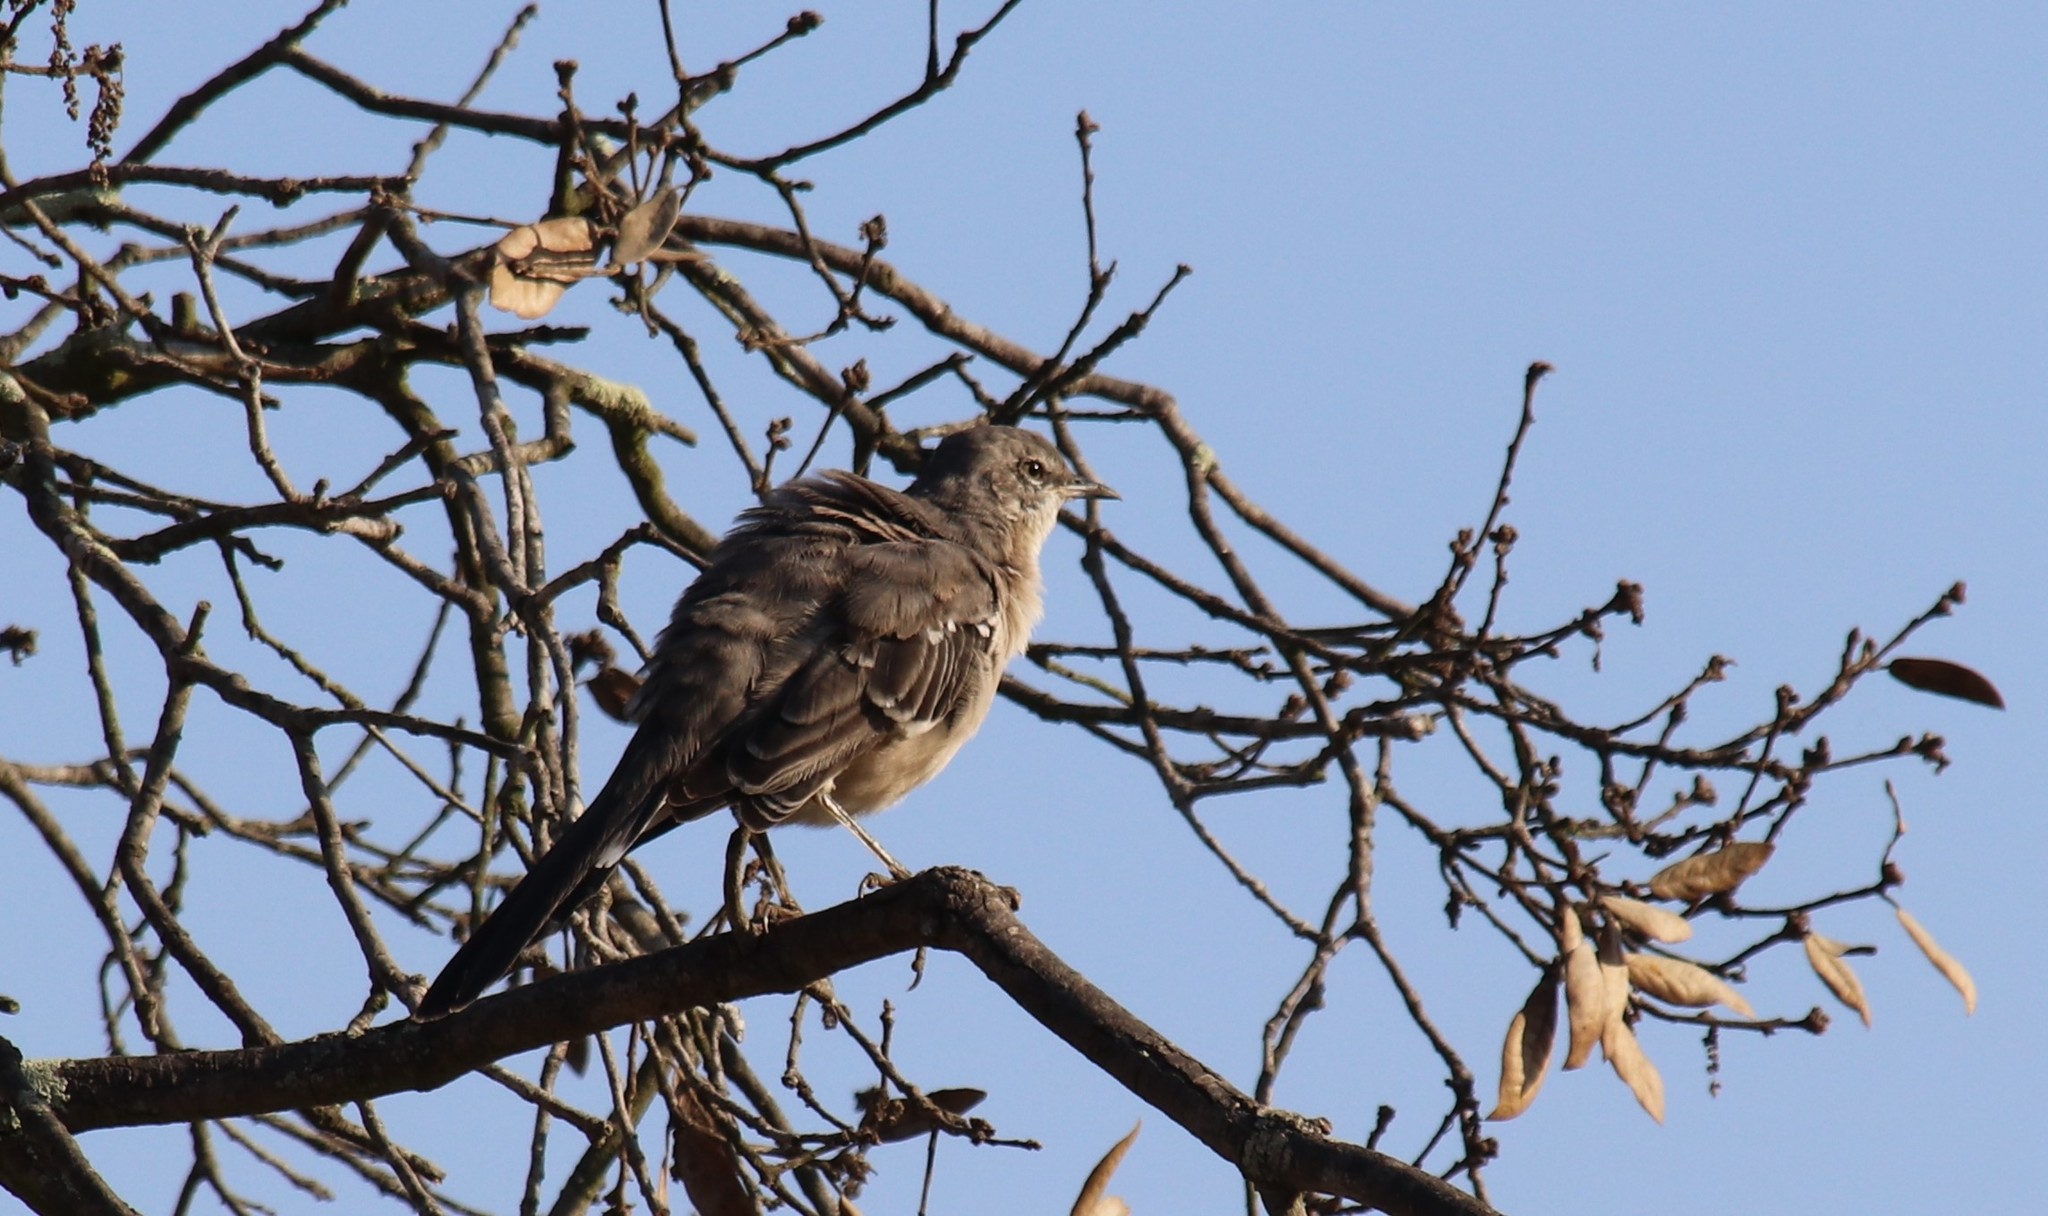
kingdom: Animalia
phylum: Chordata
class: Aves
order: Passeriformes
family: Mimidae
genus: Mimus
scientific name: Mimus polyglottos
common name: Northern mockingbird
